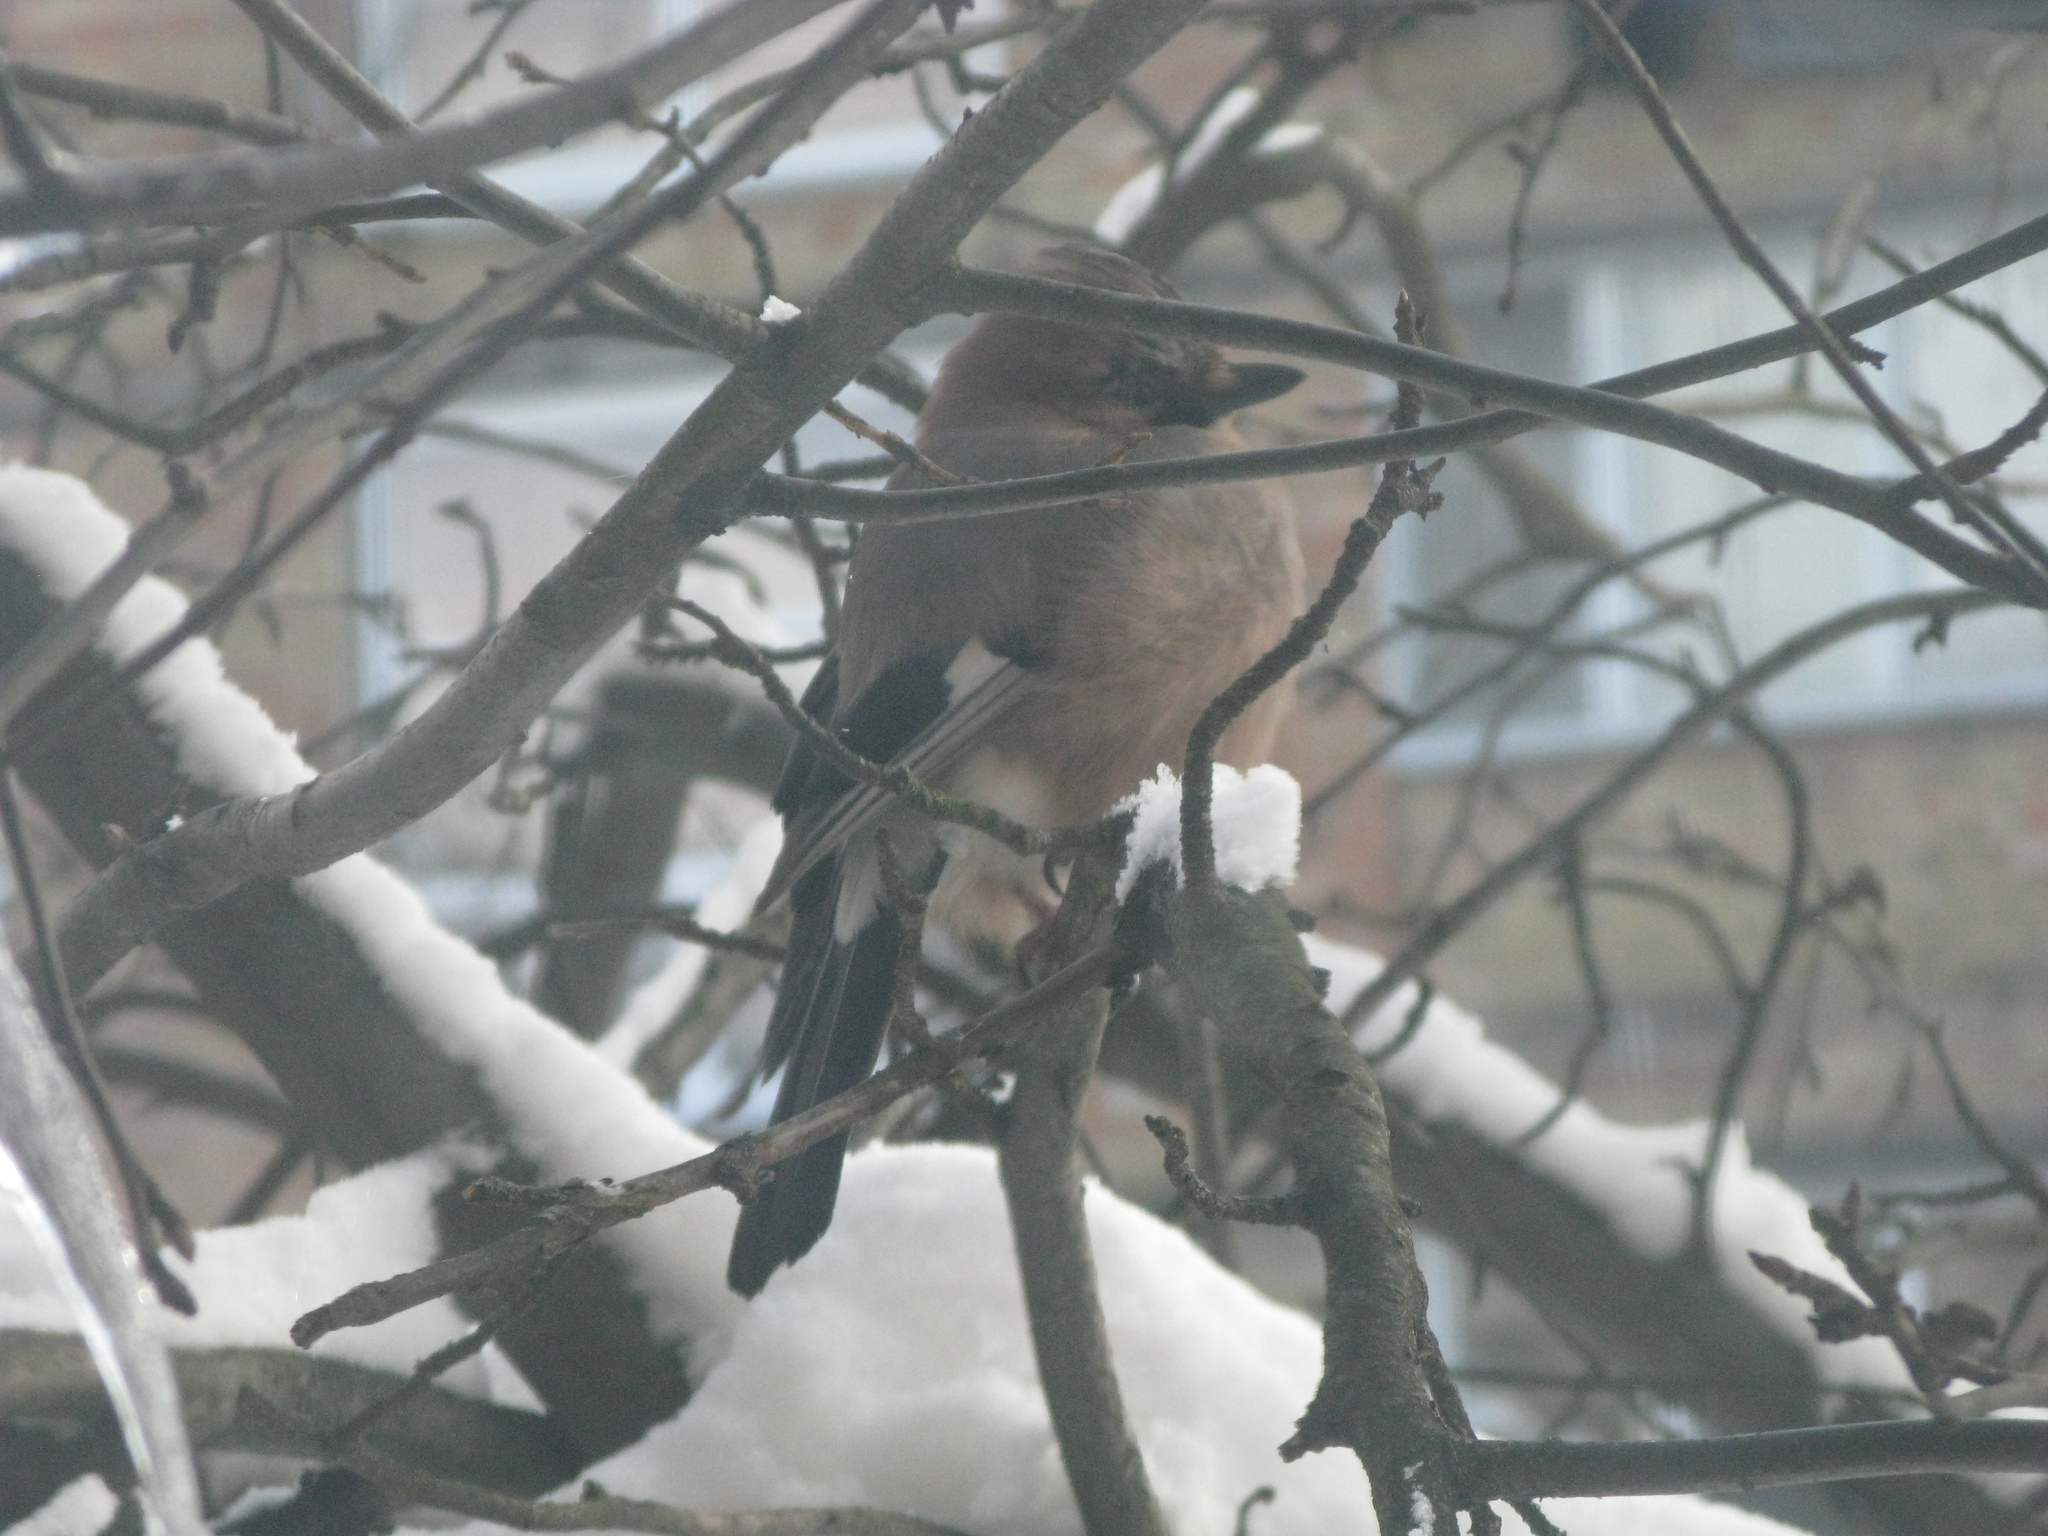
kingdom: Animalia
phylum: Chordata
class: Aves
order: Passeriformes
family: Corvidae
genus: Garrulus
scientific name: Garrulus glandarius
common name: Eurasian jay
